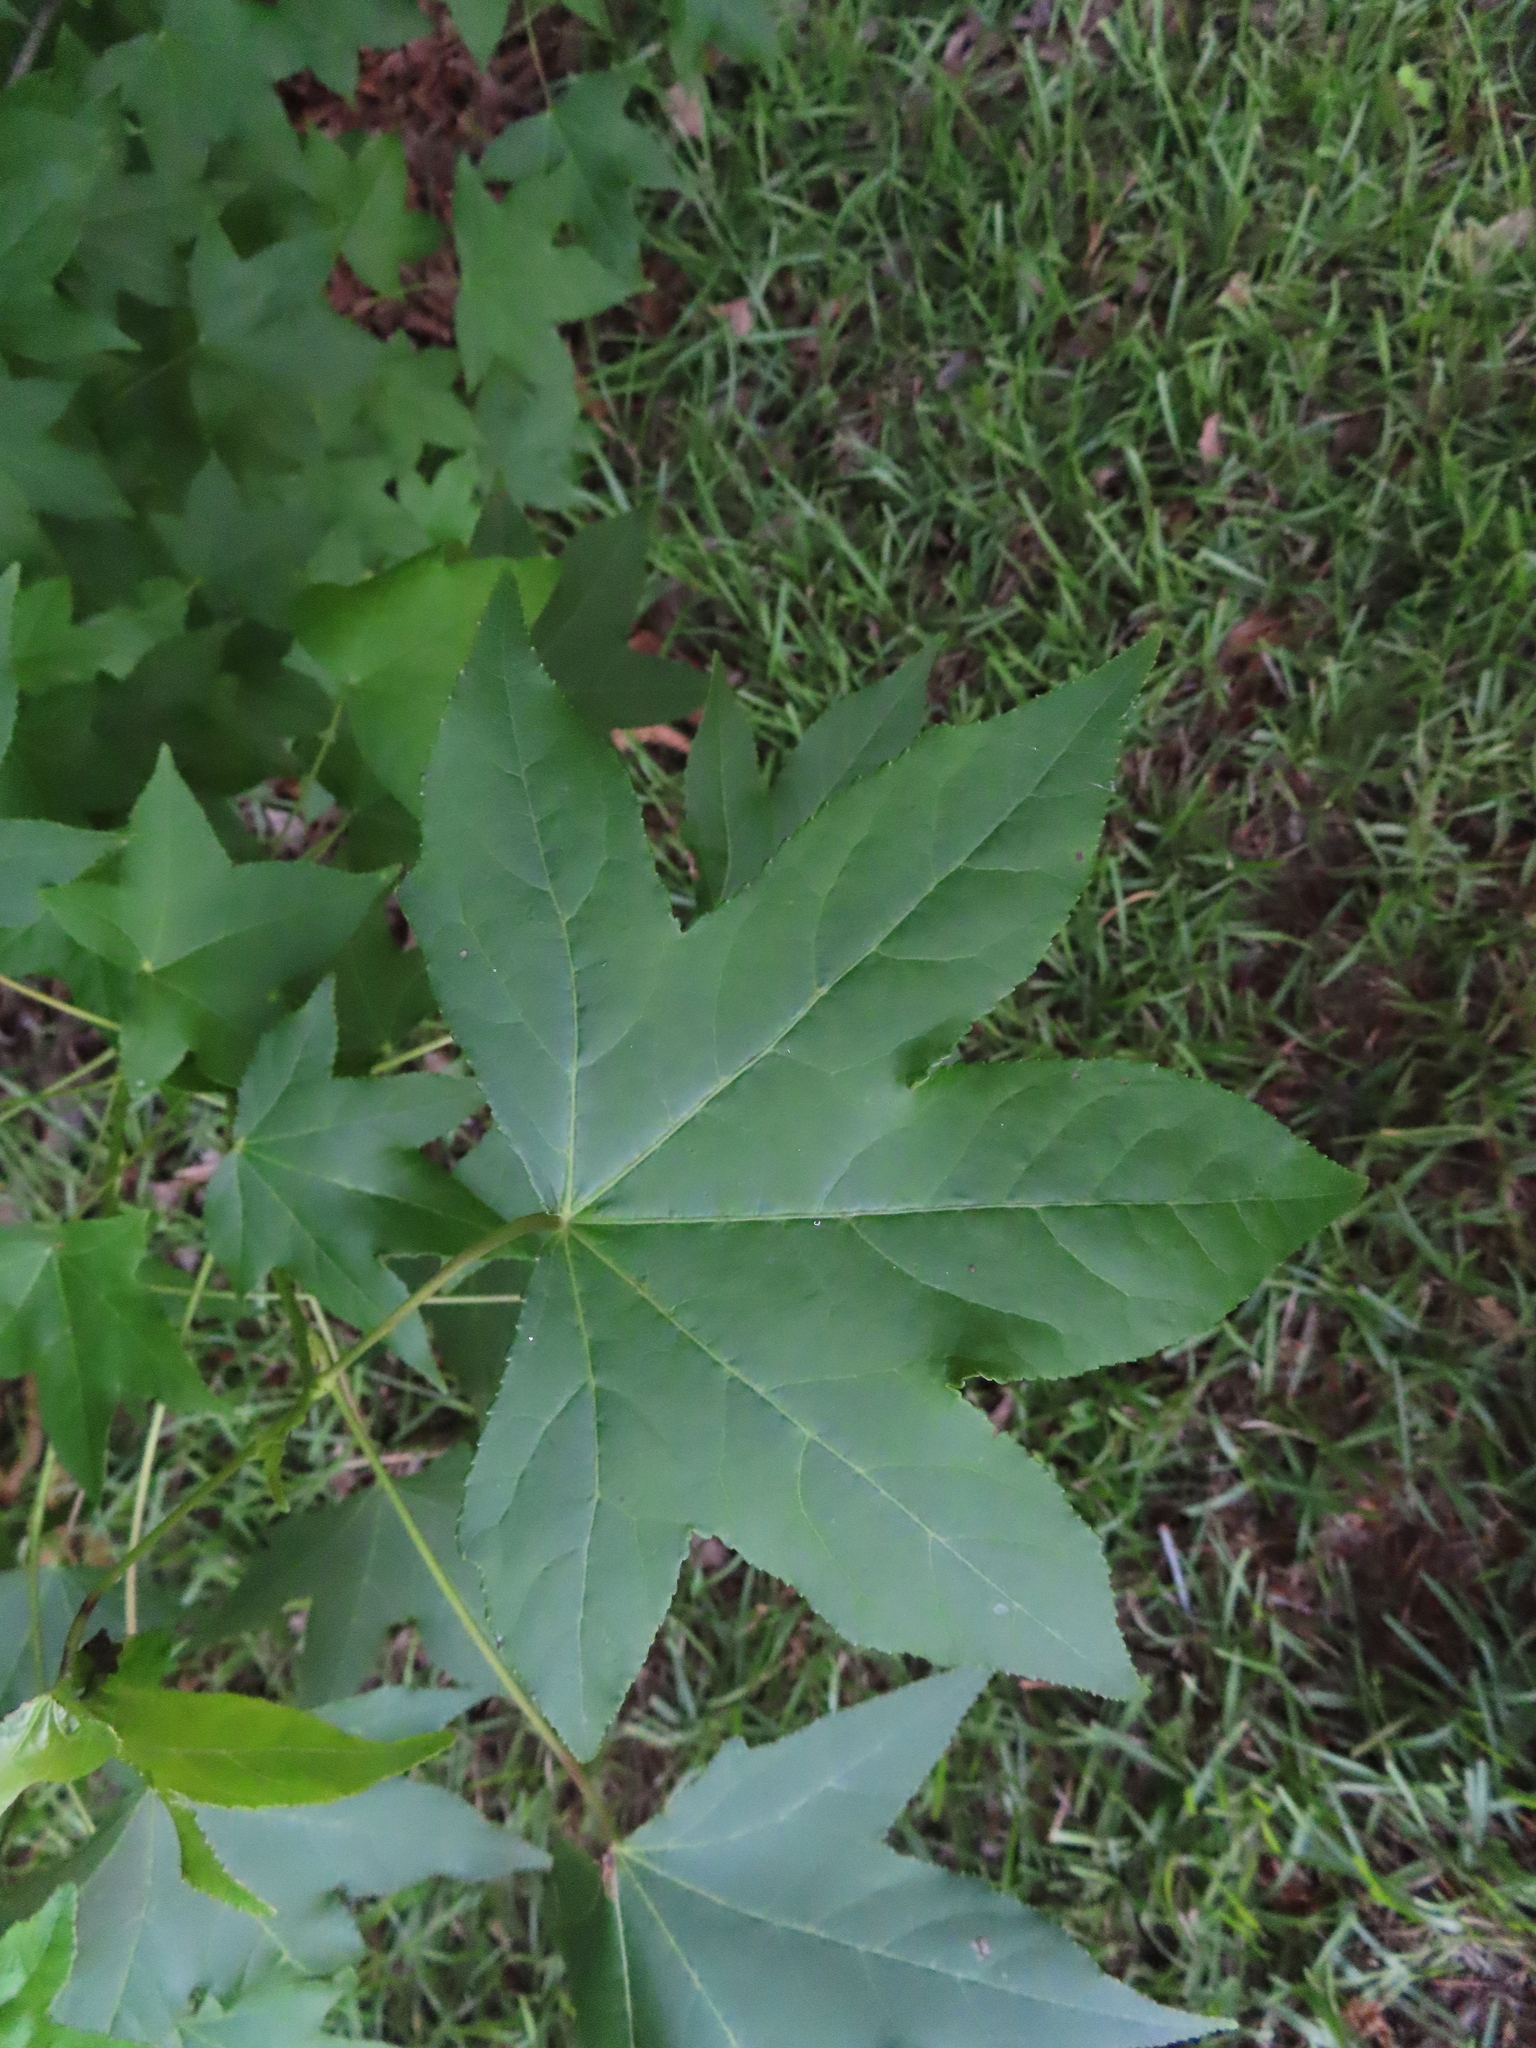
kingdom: Plantae
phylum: Tracheophyta
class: Magnoliopsida
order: Saxifragales
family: Altingiaceae
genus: Liquidambar
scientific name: Liquidambar styraciflua
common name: Sweet gum
